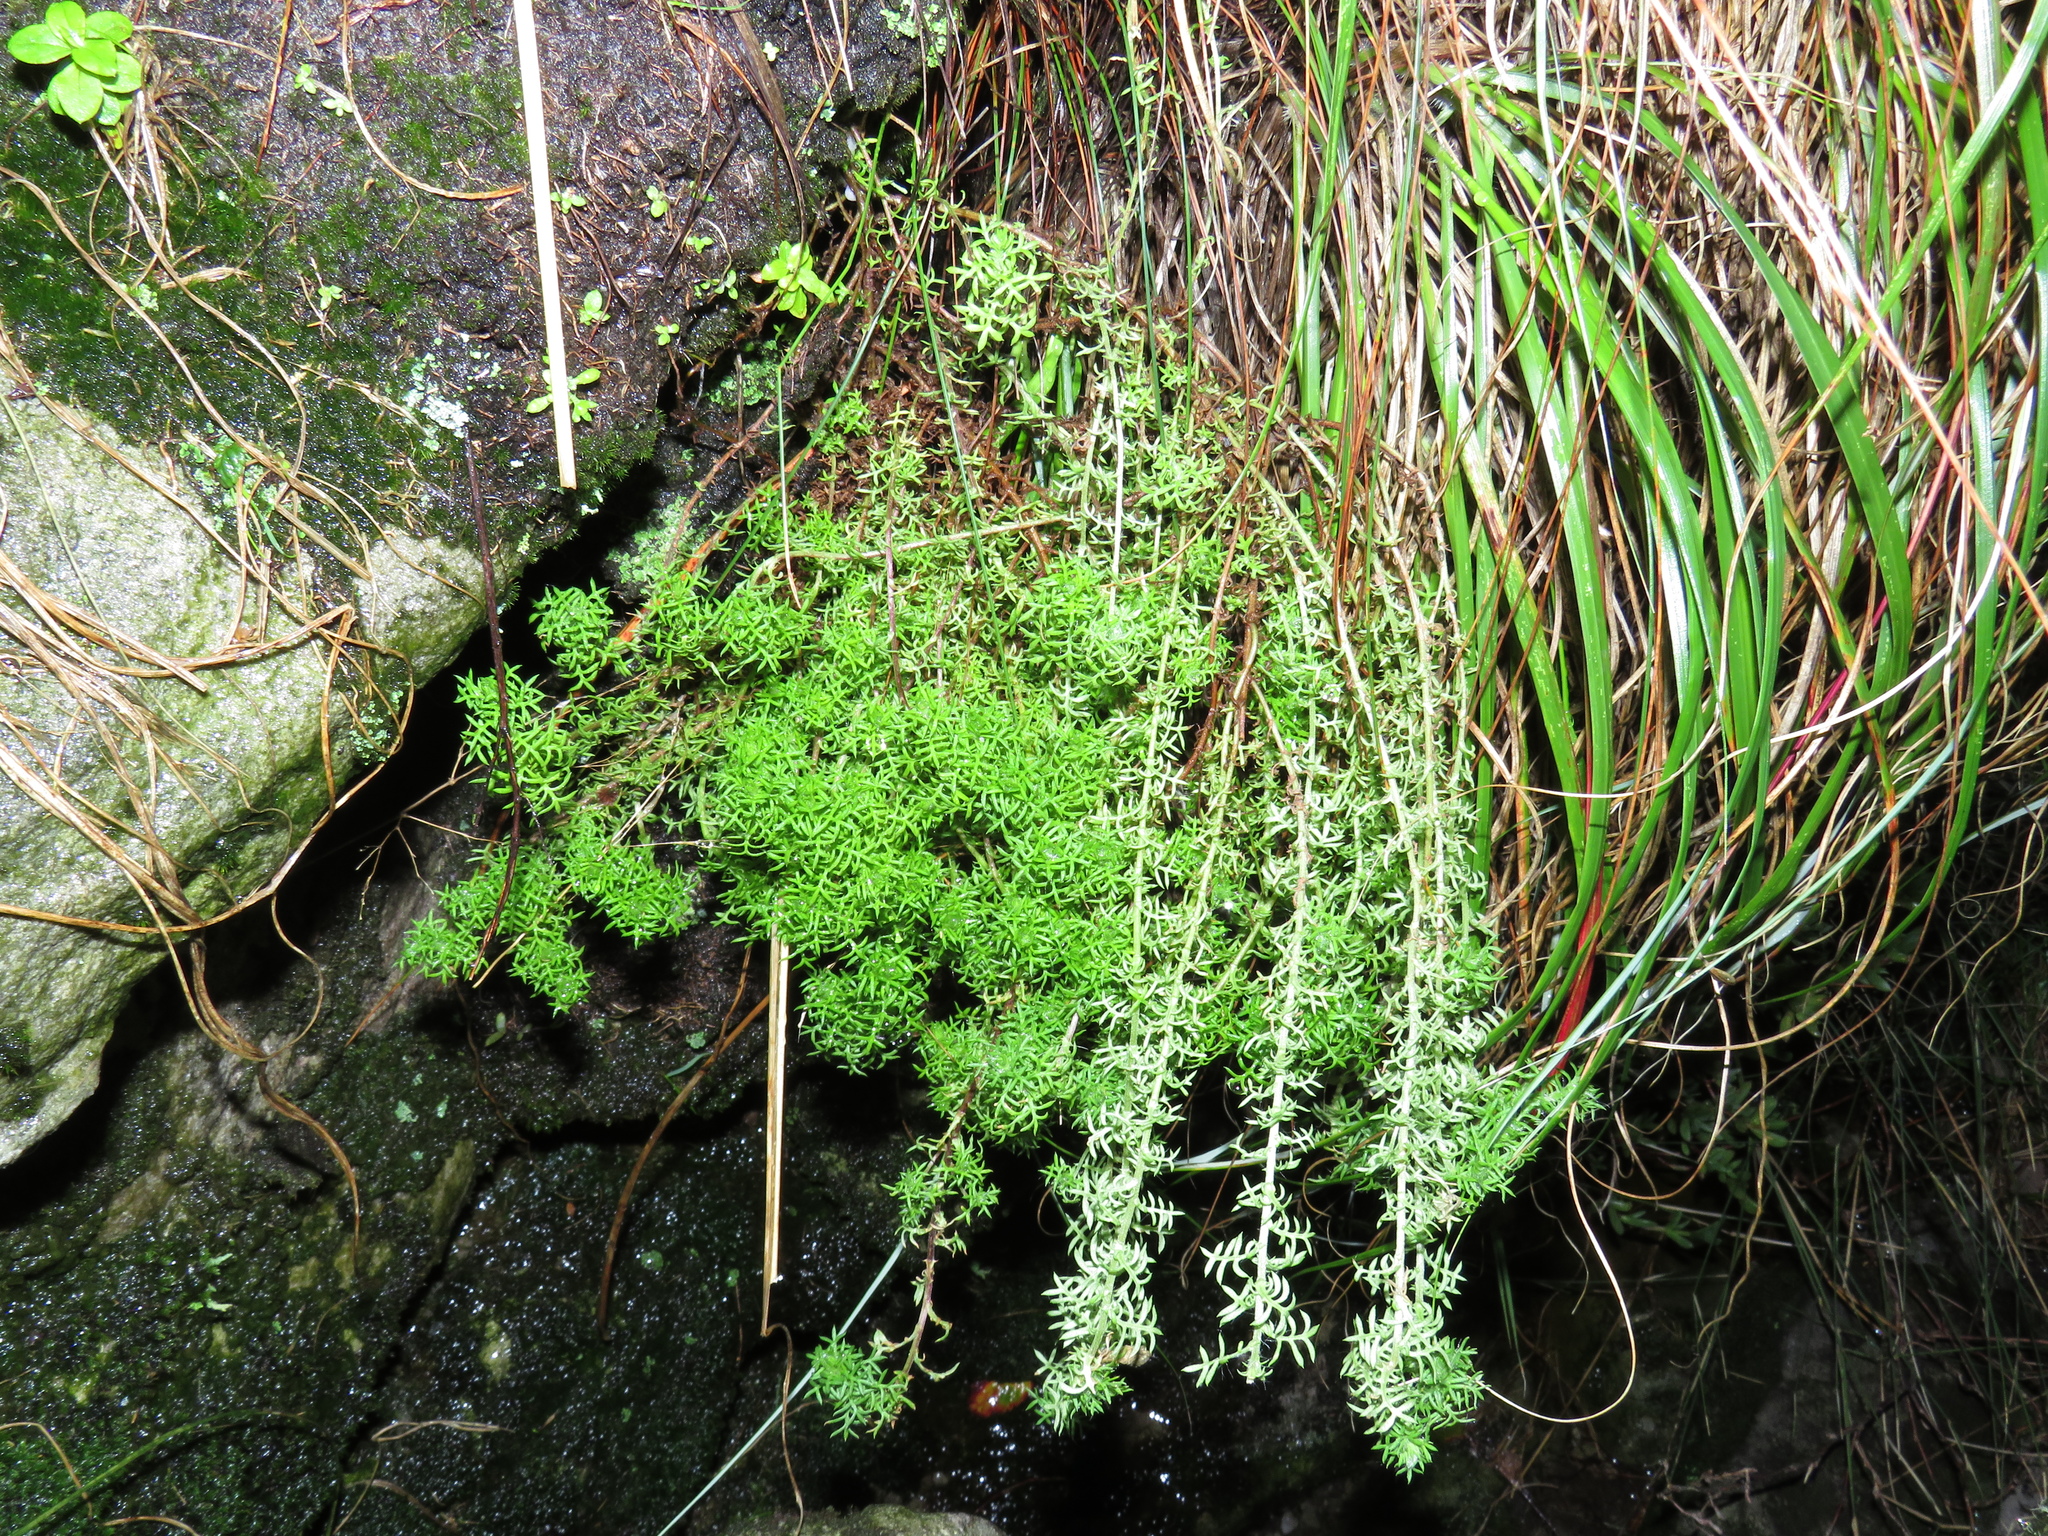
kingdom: Plantae
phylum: Tracheophyta
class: Magnoliopsida
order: Asterales
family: Asteraceae
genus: Hippia
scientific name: Hippia pilosa
